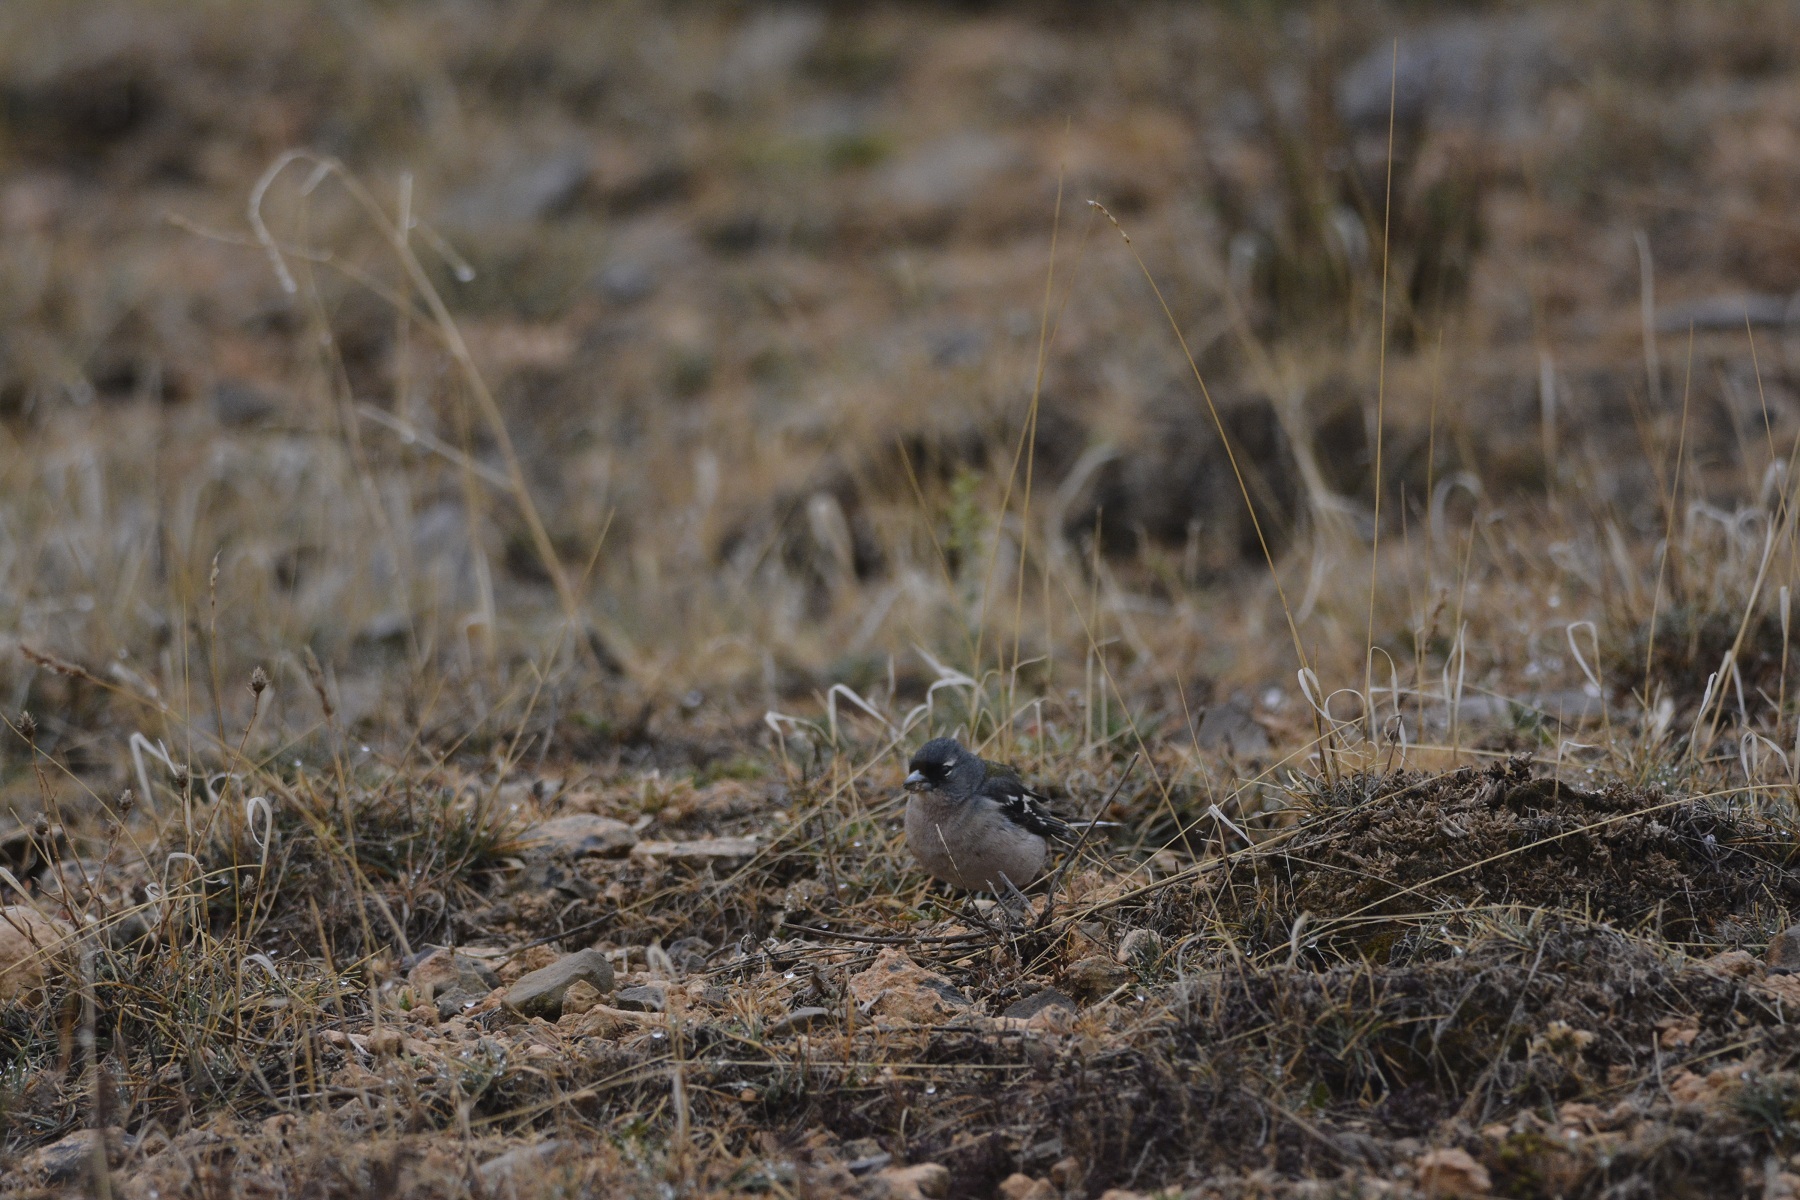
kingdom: Animalia
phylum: Chordata
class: Aves
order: Passeriformes
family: Fringillidae
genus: Fringilla
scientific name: Fringilla spodiogenys
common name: African chaffinch
